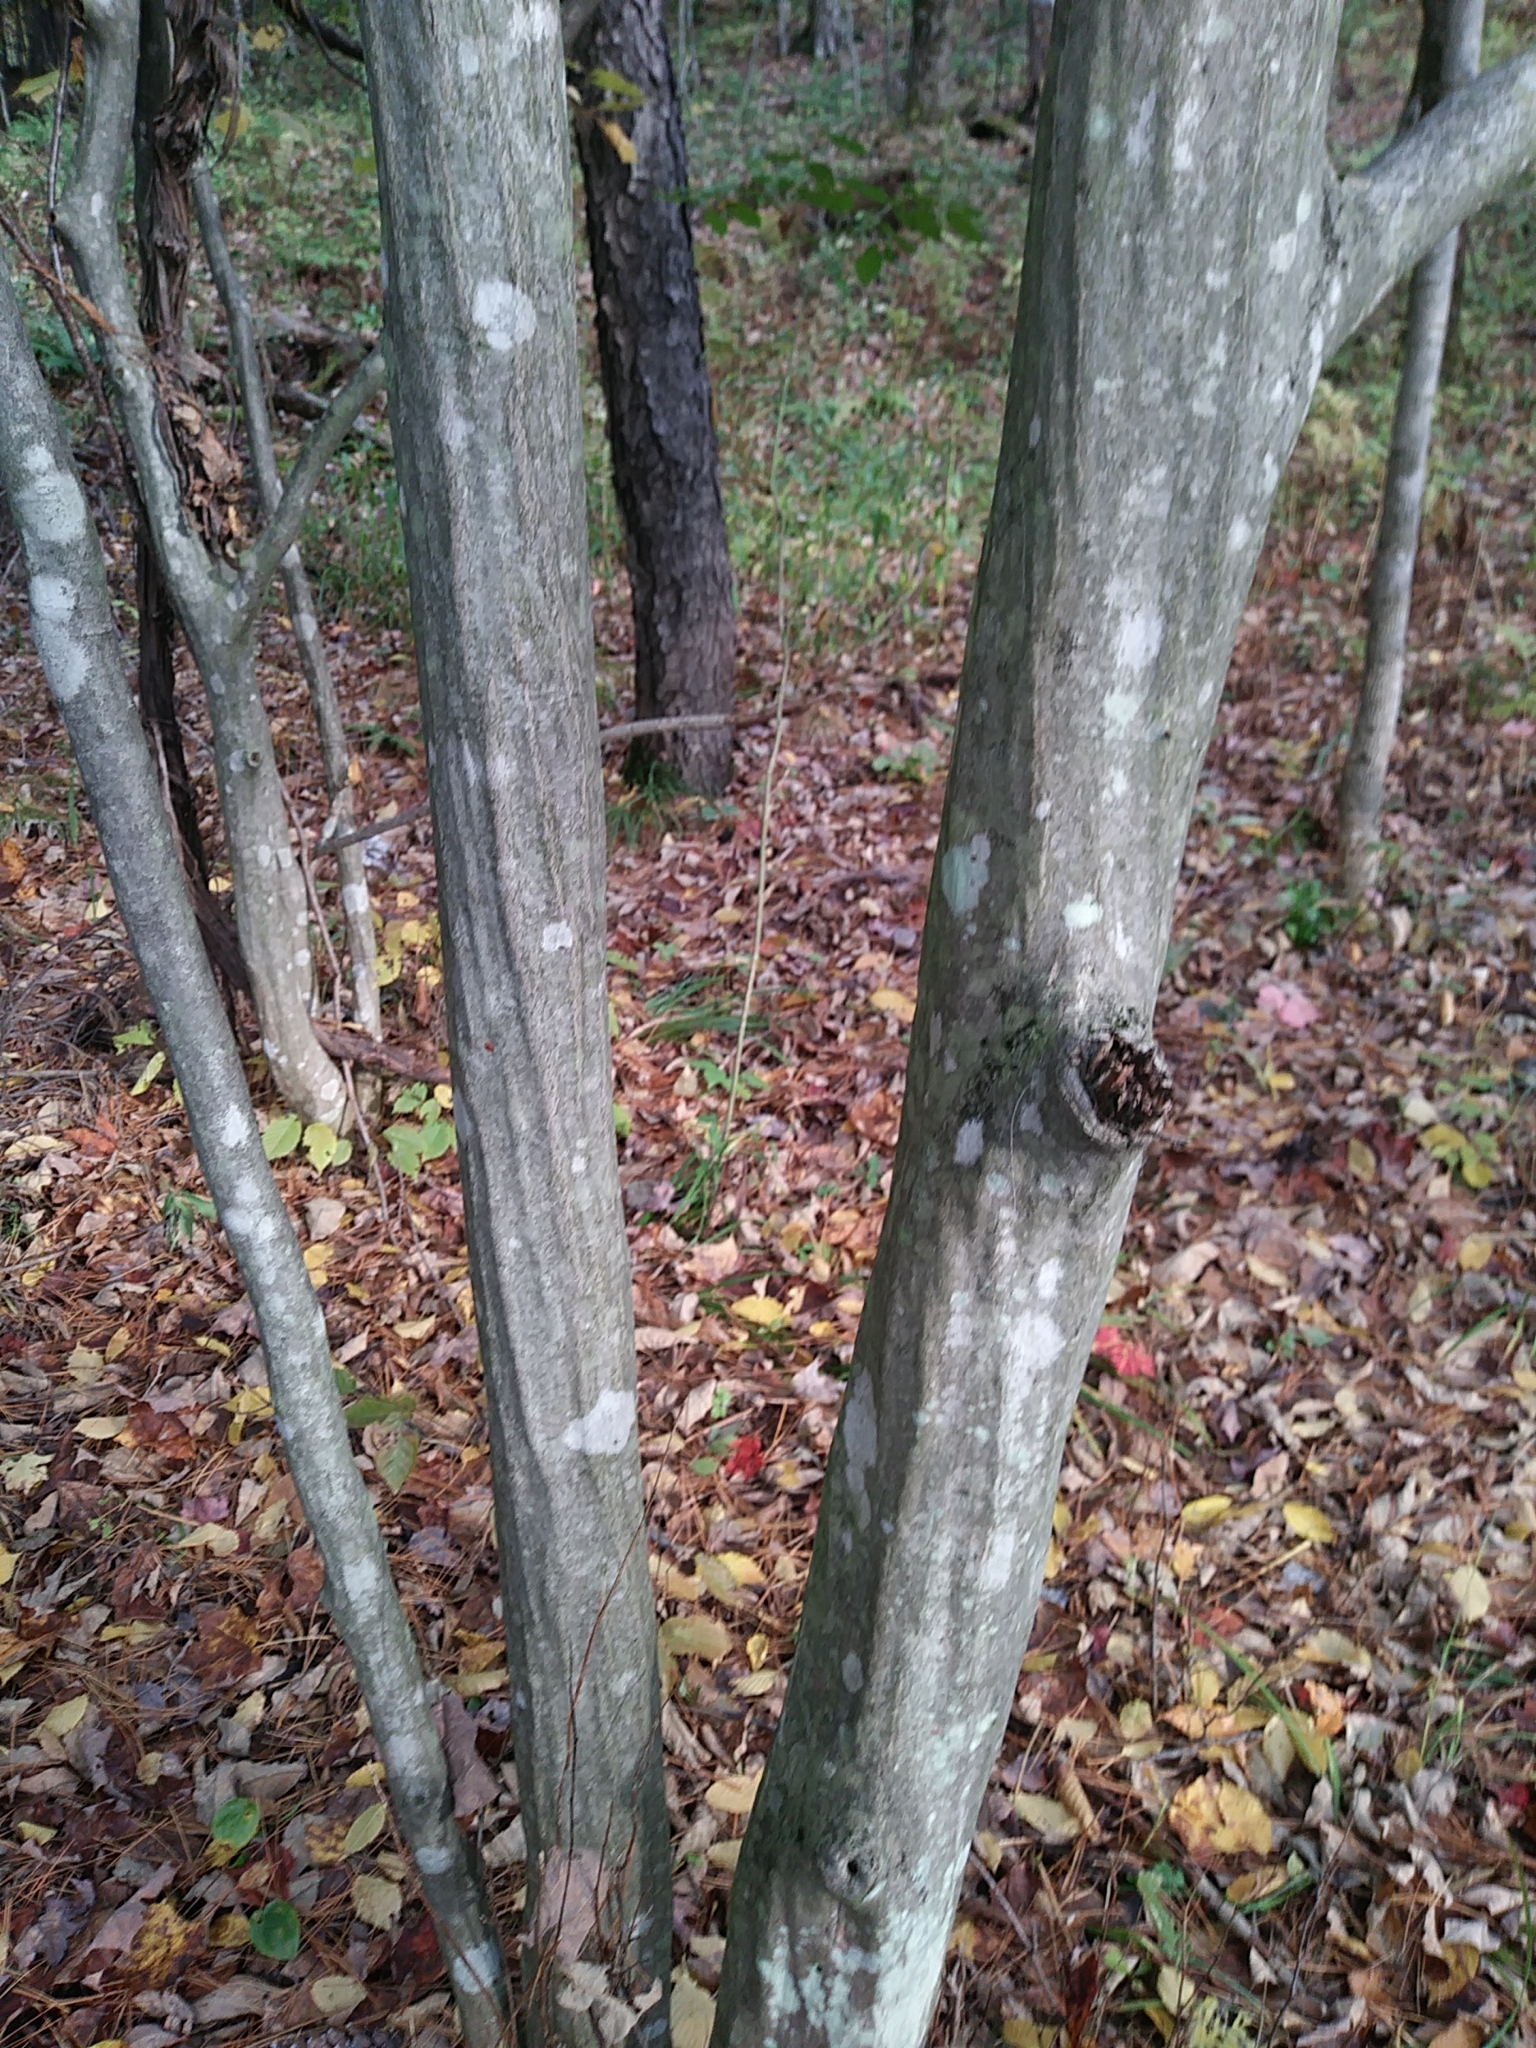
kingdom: Plantae
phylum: Tracheophyta
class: Magnoliopsida
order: Fagales
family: Betulaceae
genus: Carpinus
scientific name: Carpinus caroliniana
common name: American hornbeam
